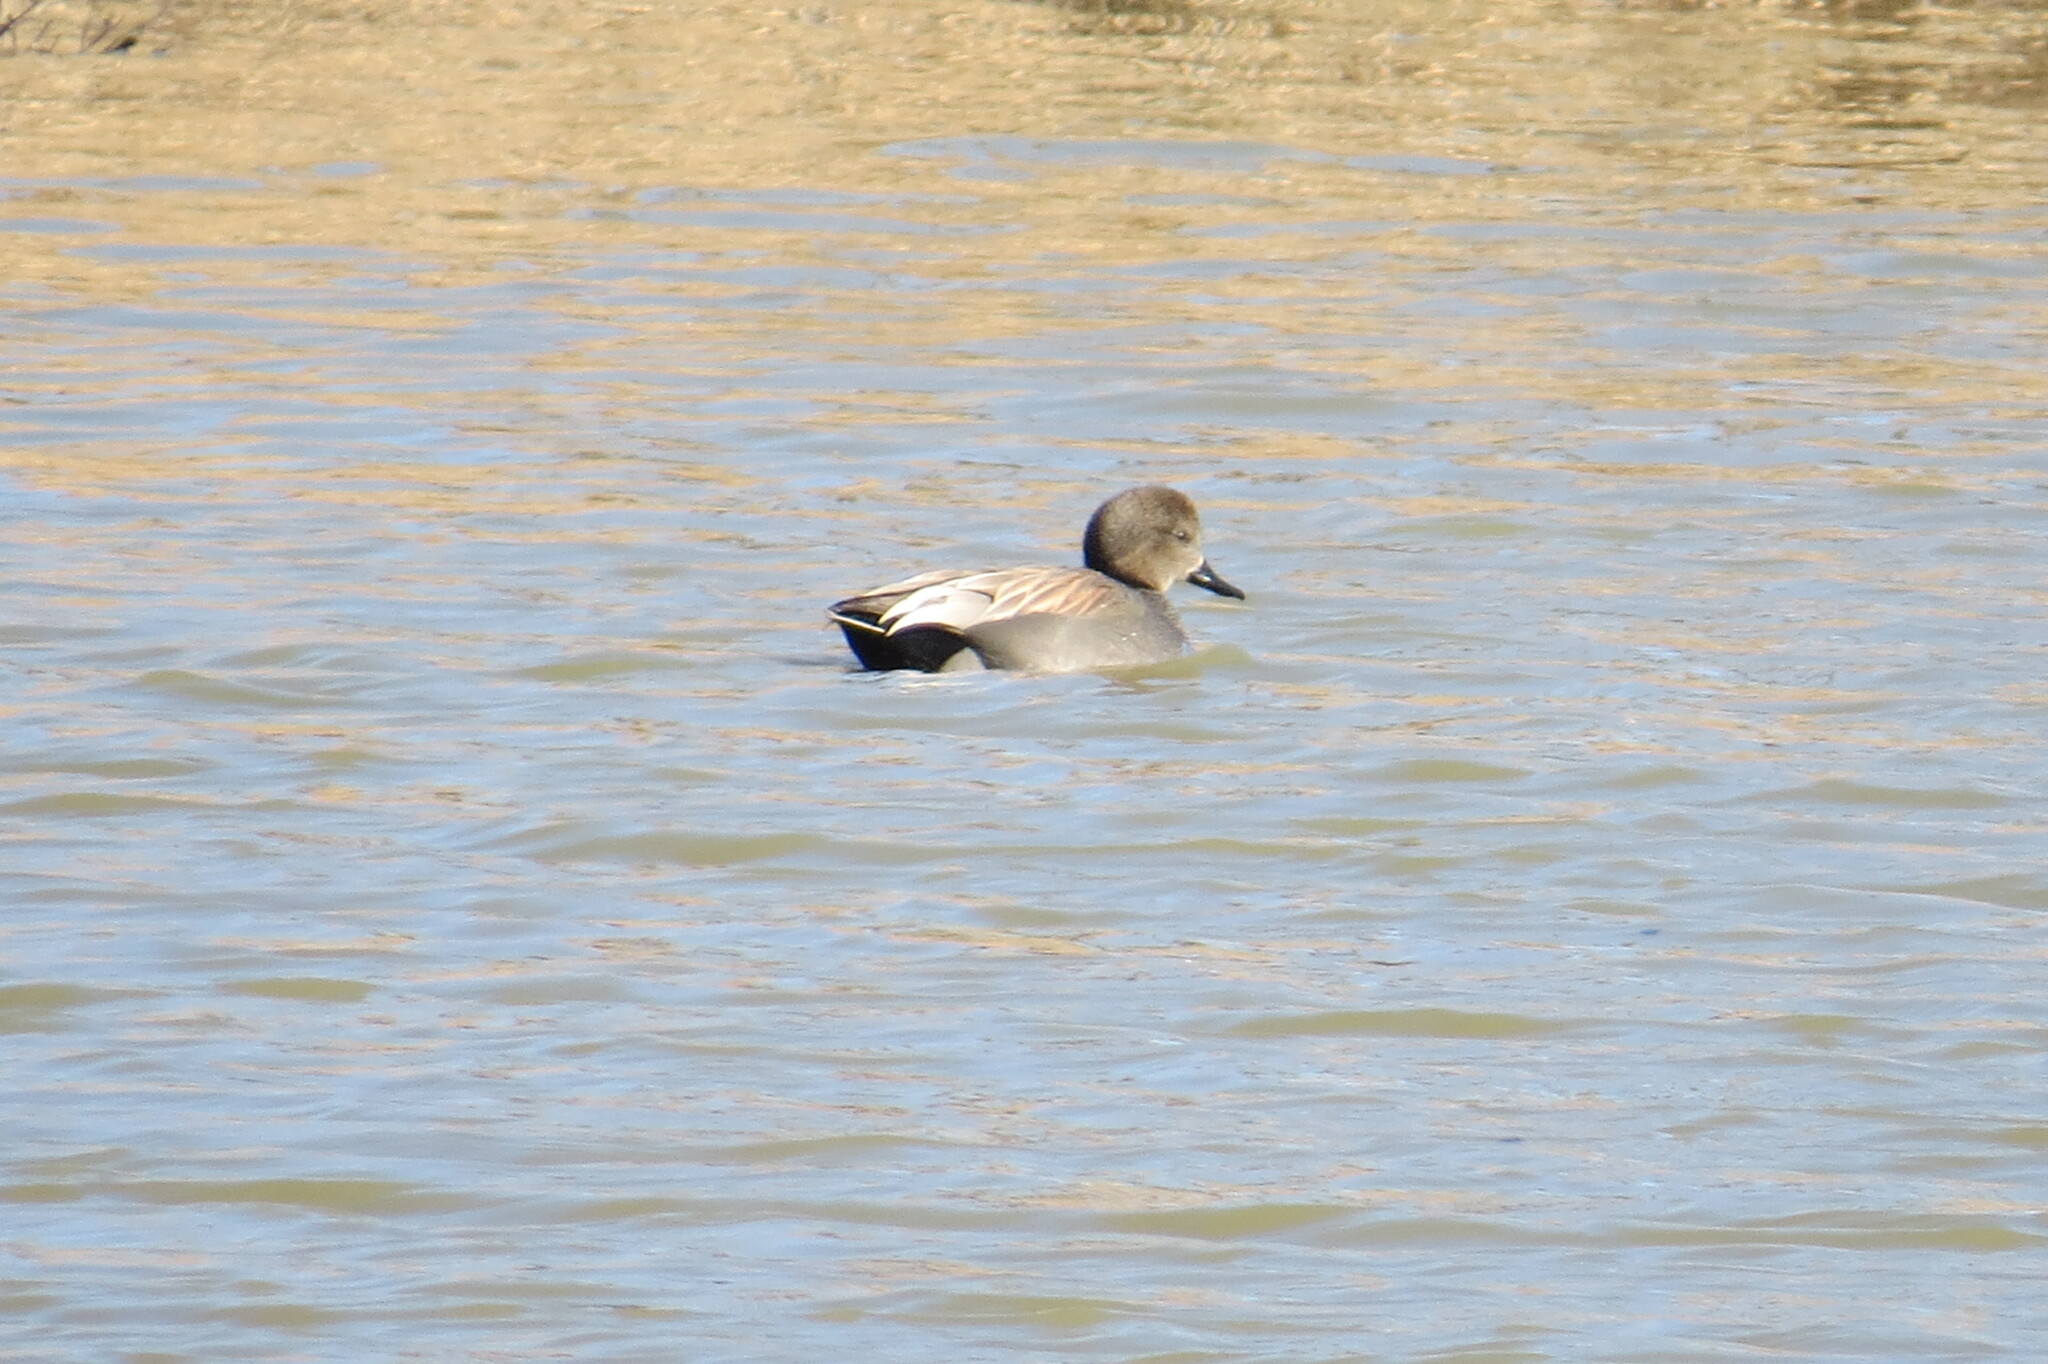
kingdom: Animalia
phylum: Chordata
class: Aves
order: Anseriformes
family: Anatidae
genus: Mareca
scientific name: Mareca strepera
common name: Gadwall
